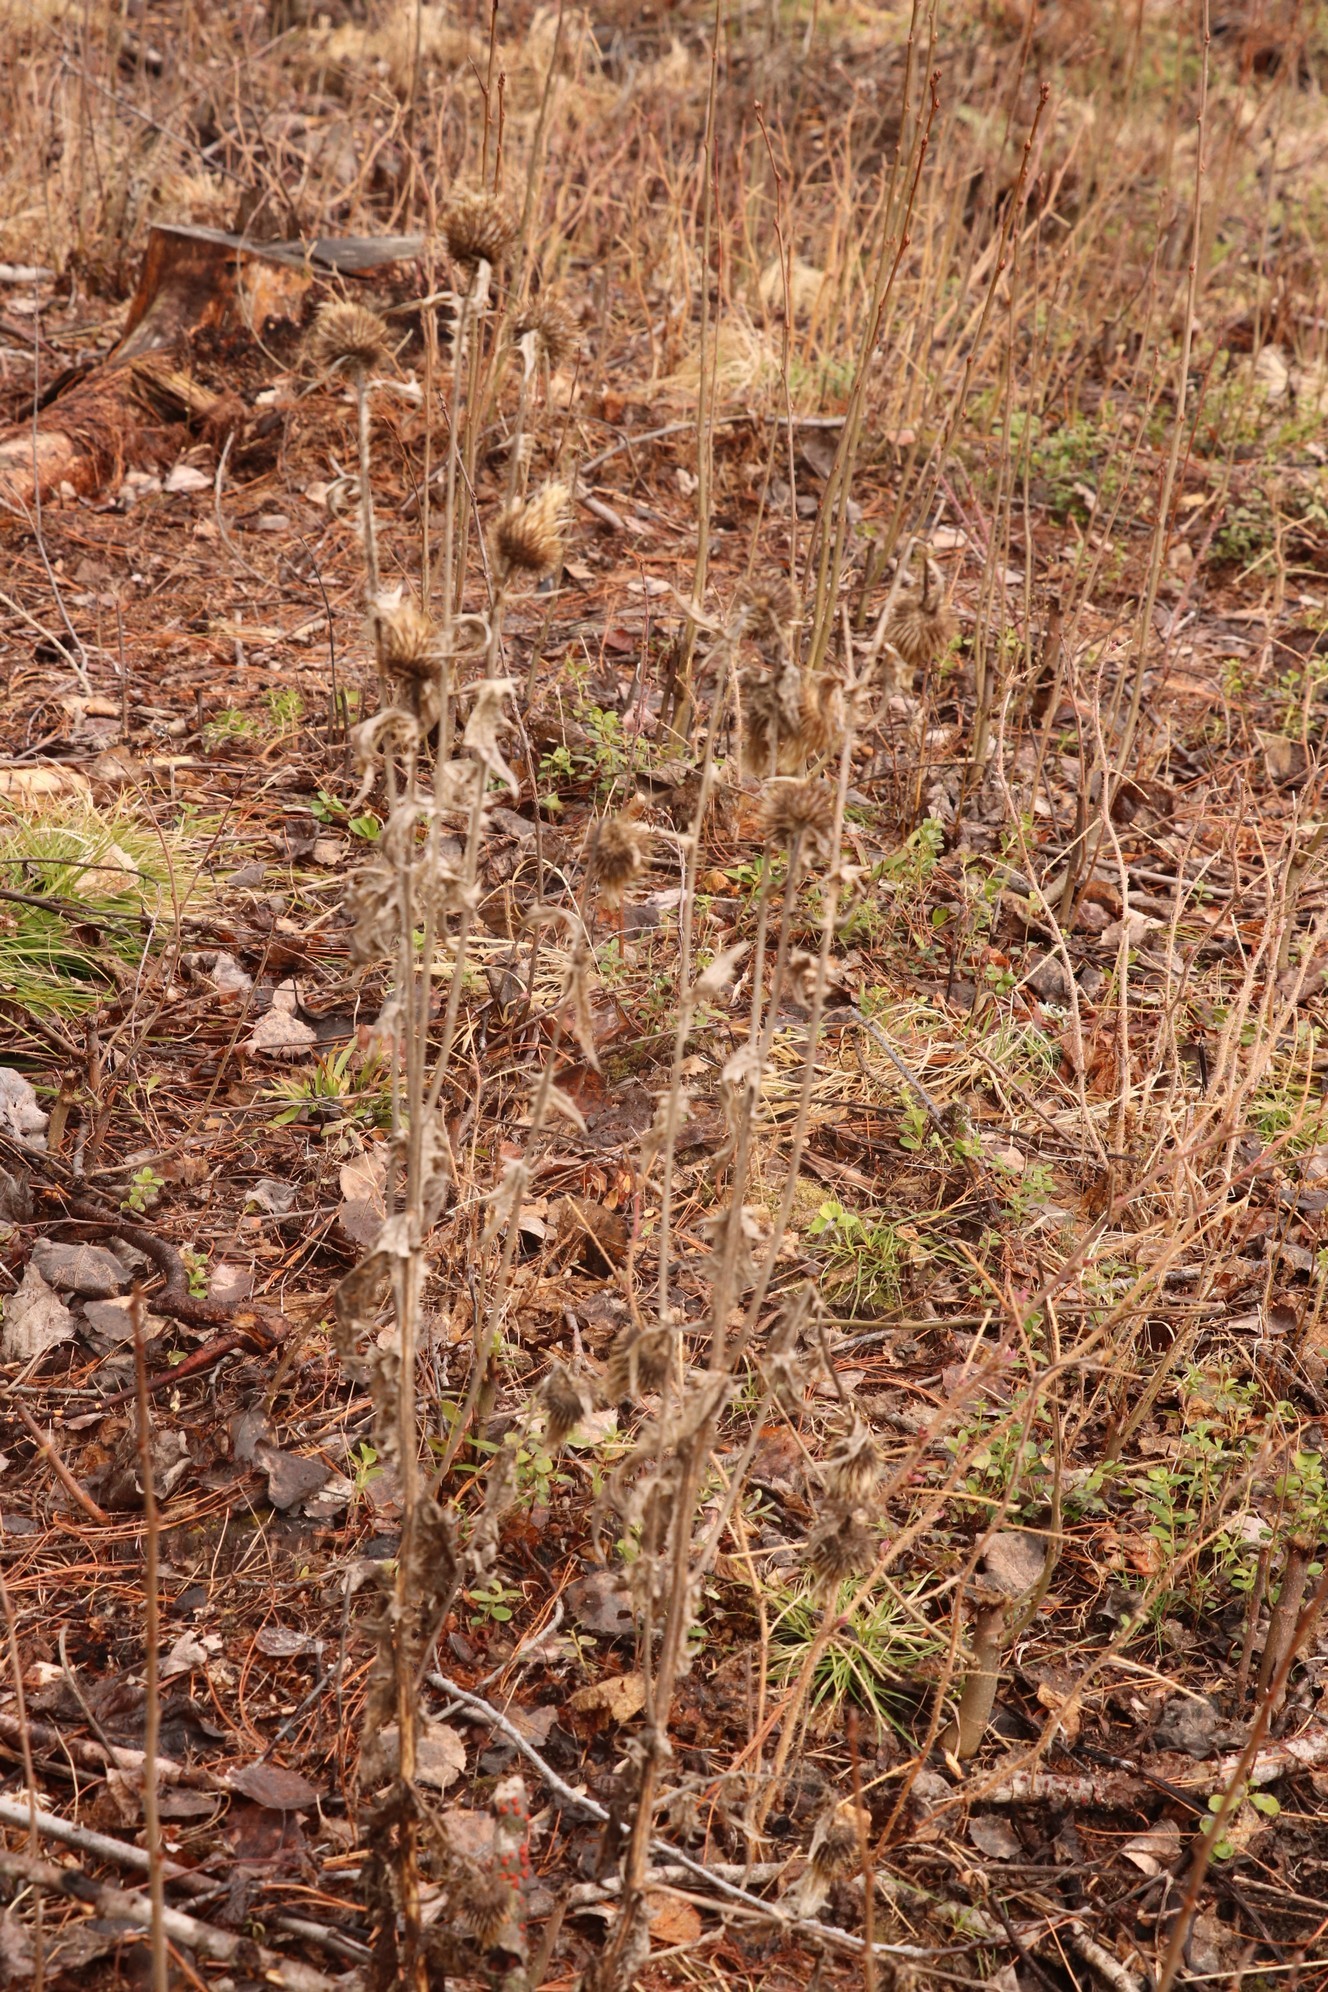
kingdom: Plantae
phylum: Tracheophyta
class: Magnoliopsida
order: Asterales
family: Asteraceae
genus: Cirsium
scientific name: Cirsium vulgare
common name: Bull thistle
